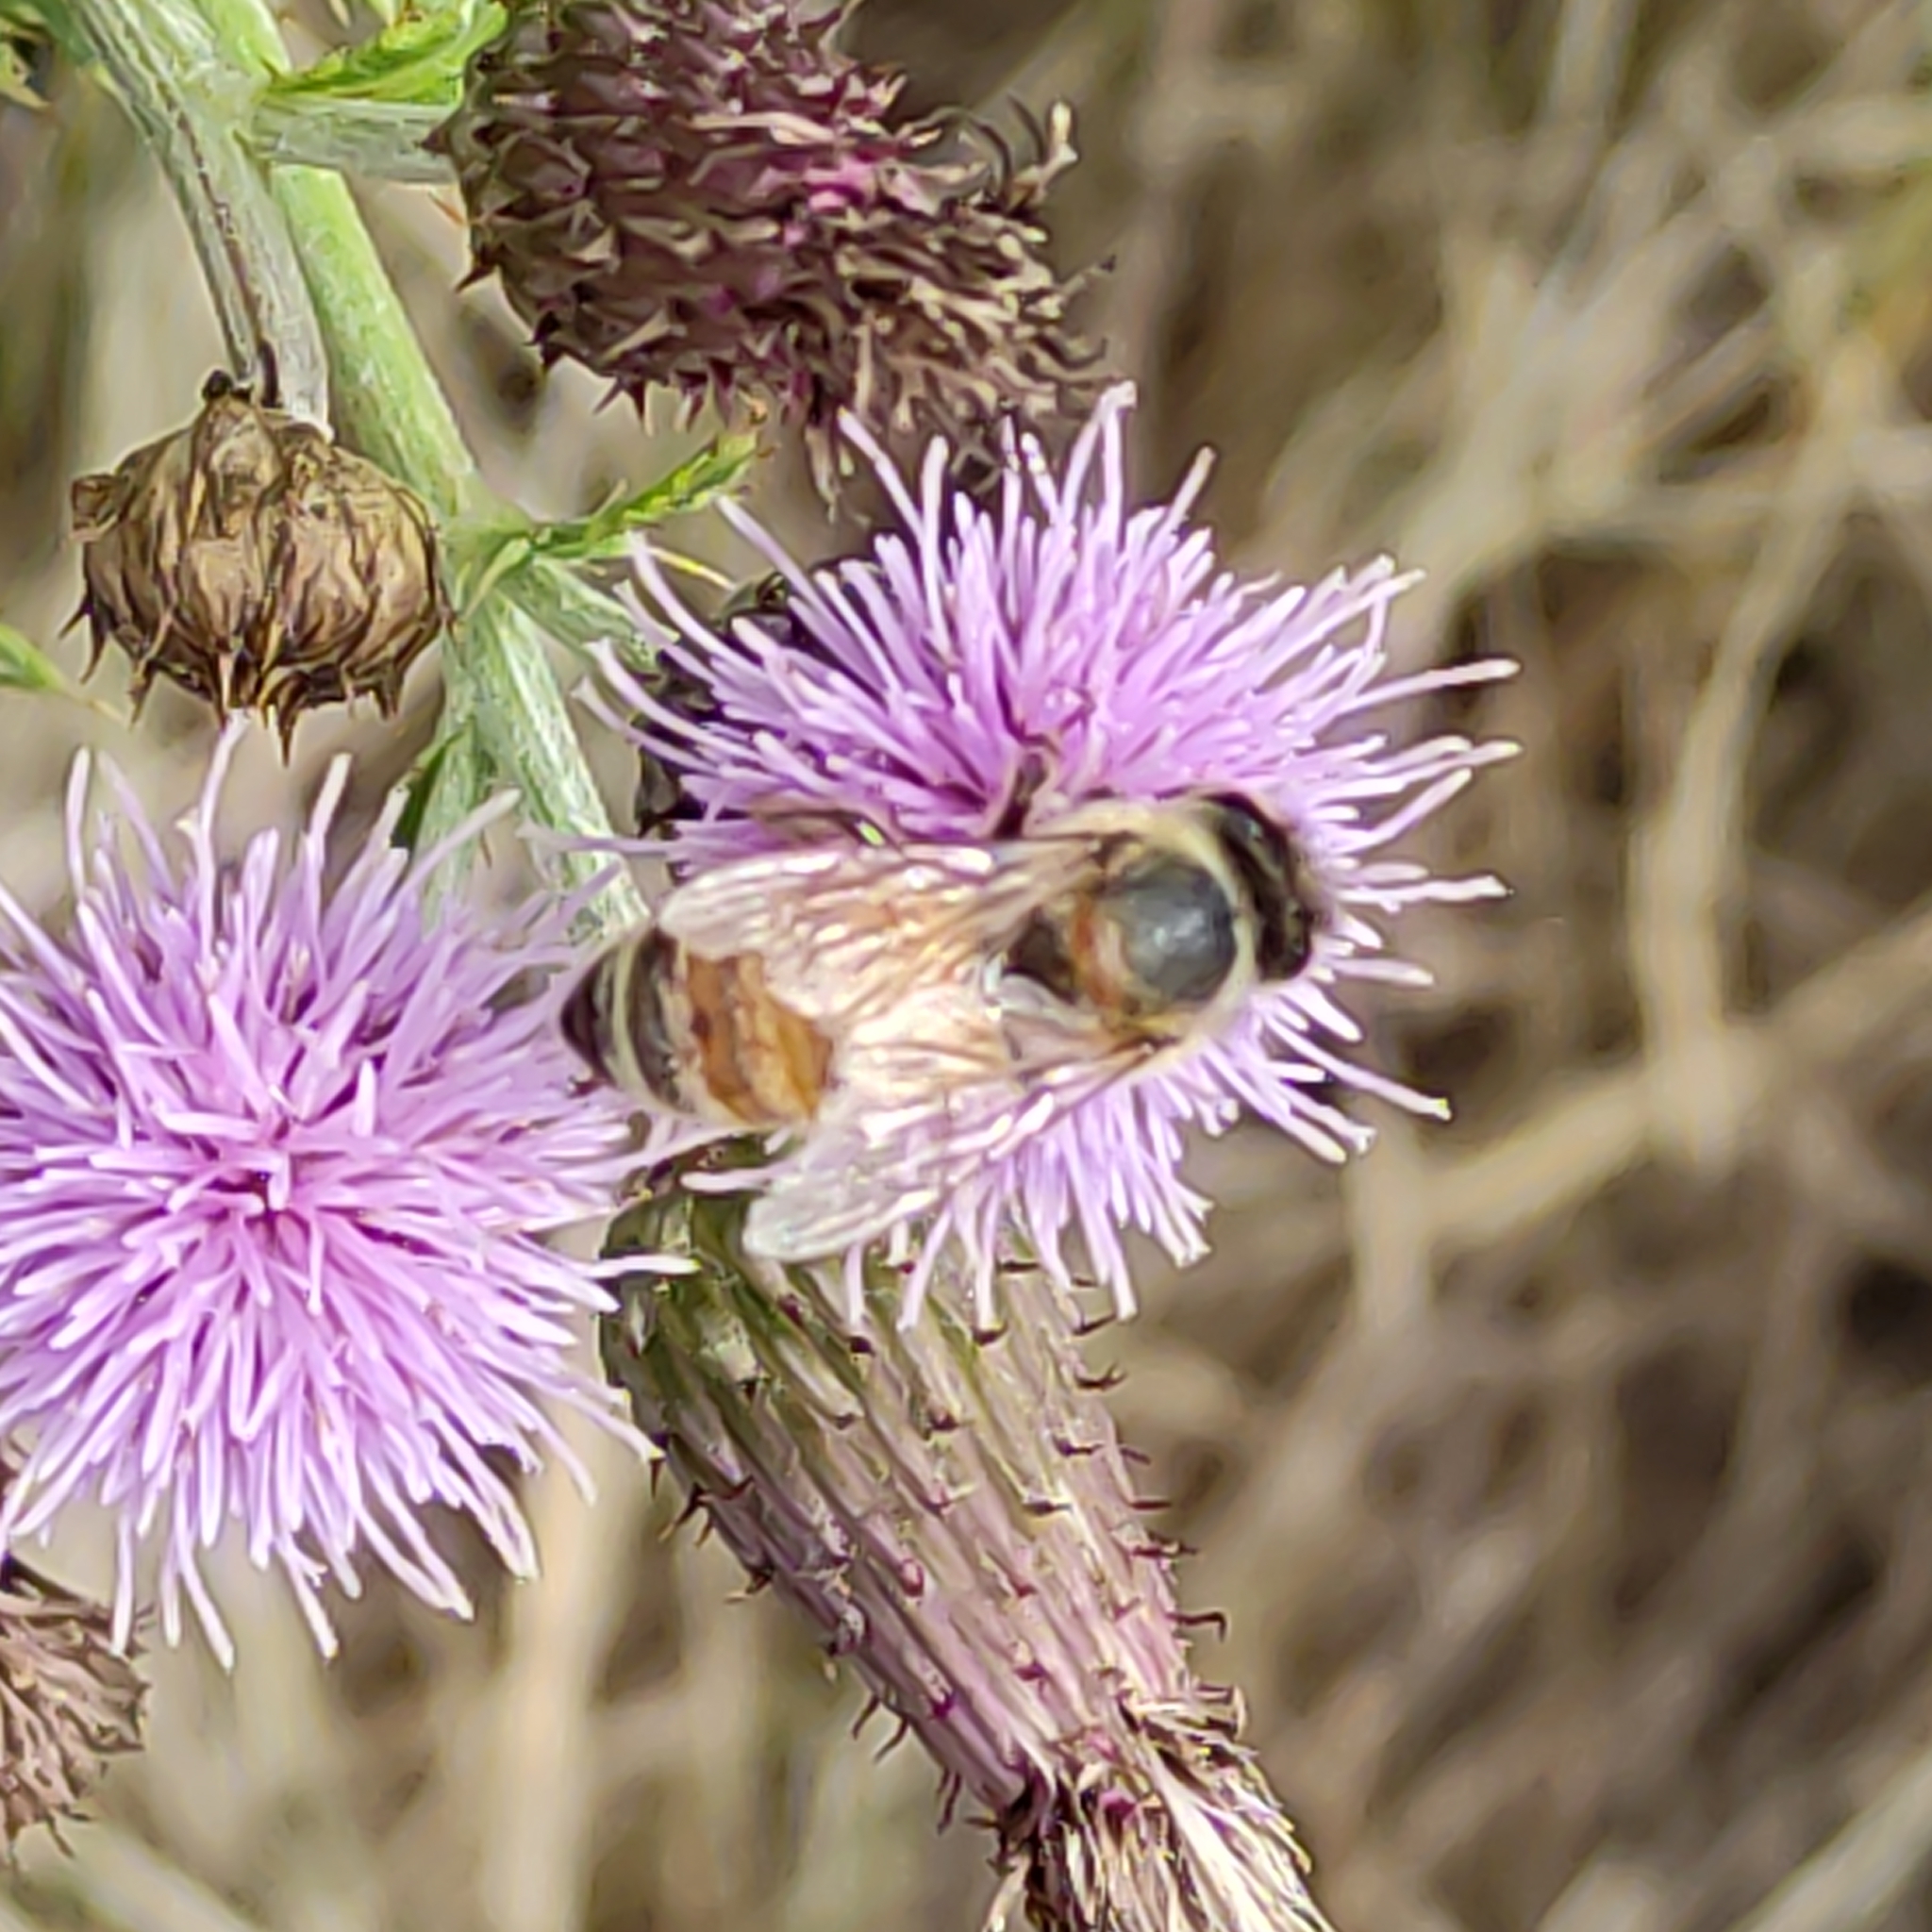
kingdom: Animalia
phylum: Arthropoda
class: Insecta
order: Hymenoptera
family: Apidae
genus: Apis
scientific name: Apis mellifera
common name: Honey bee
